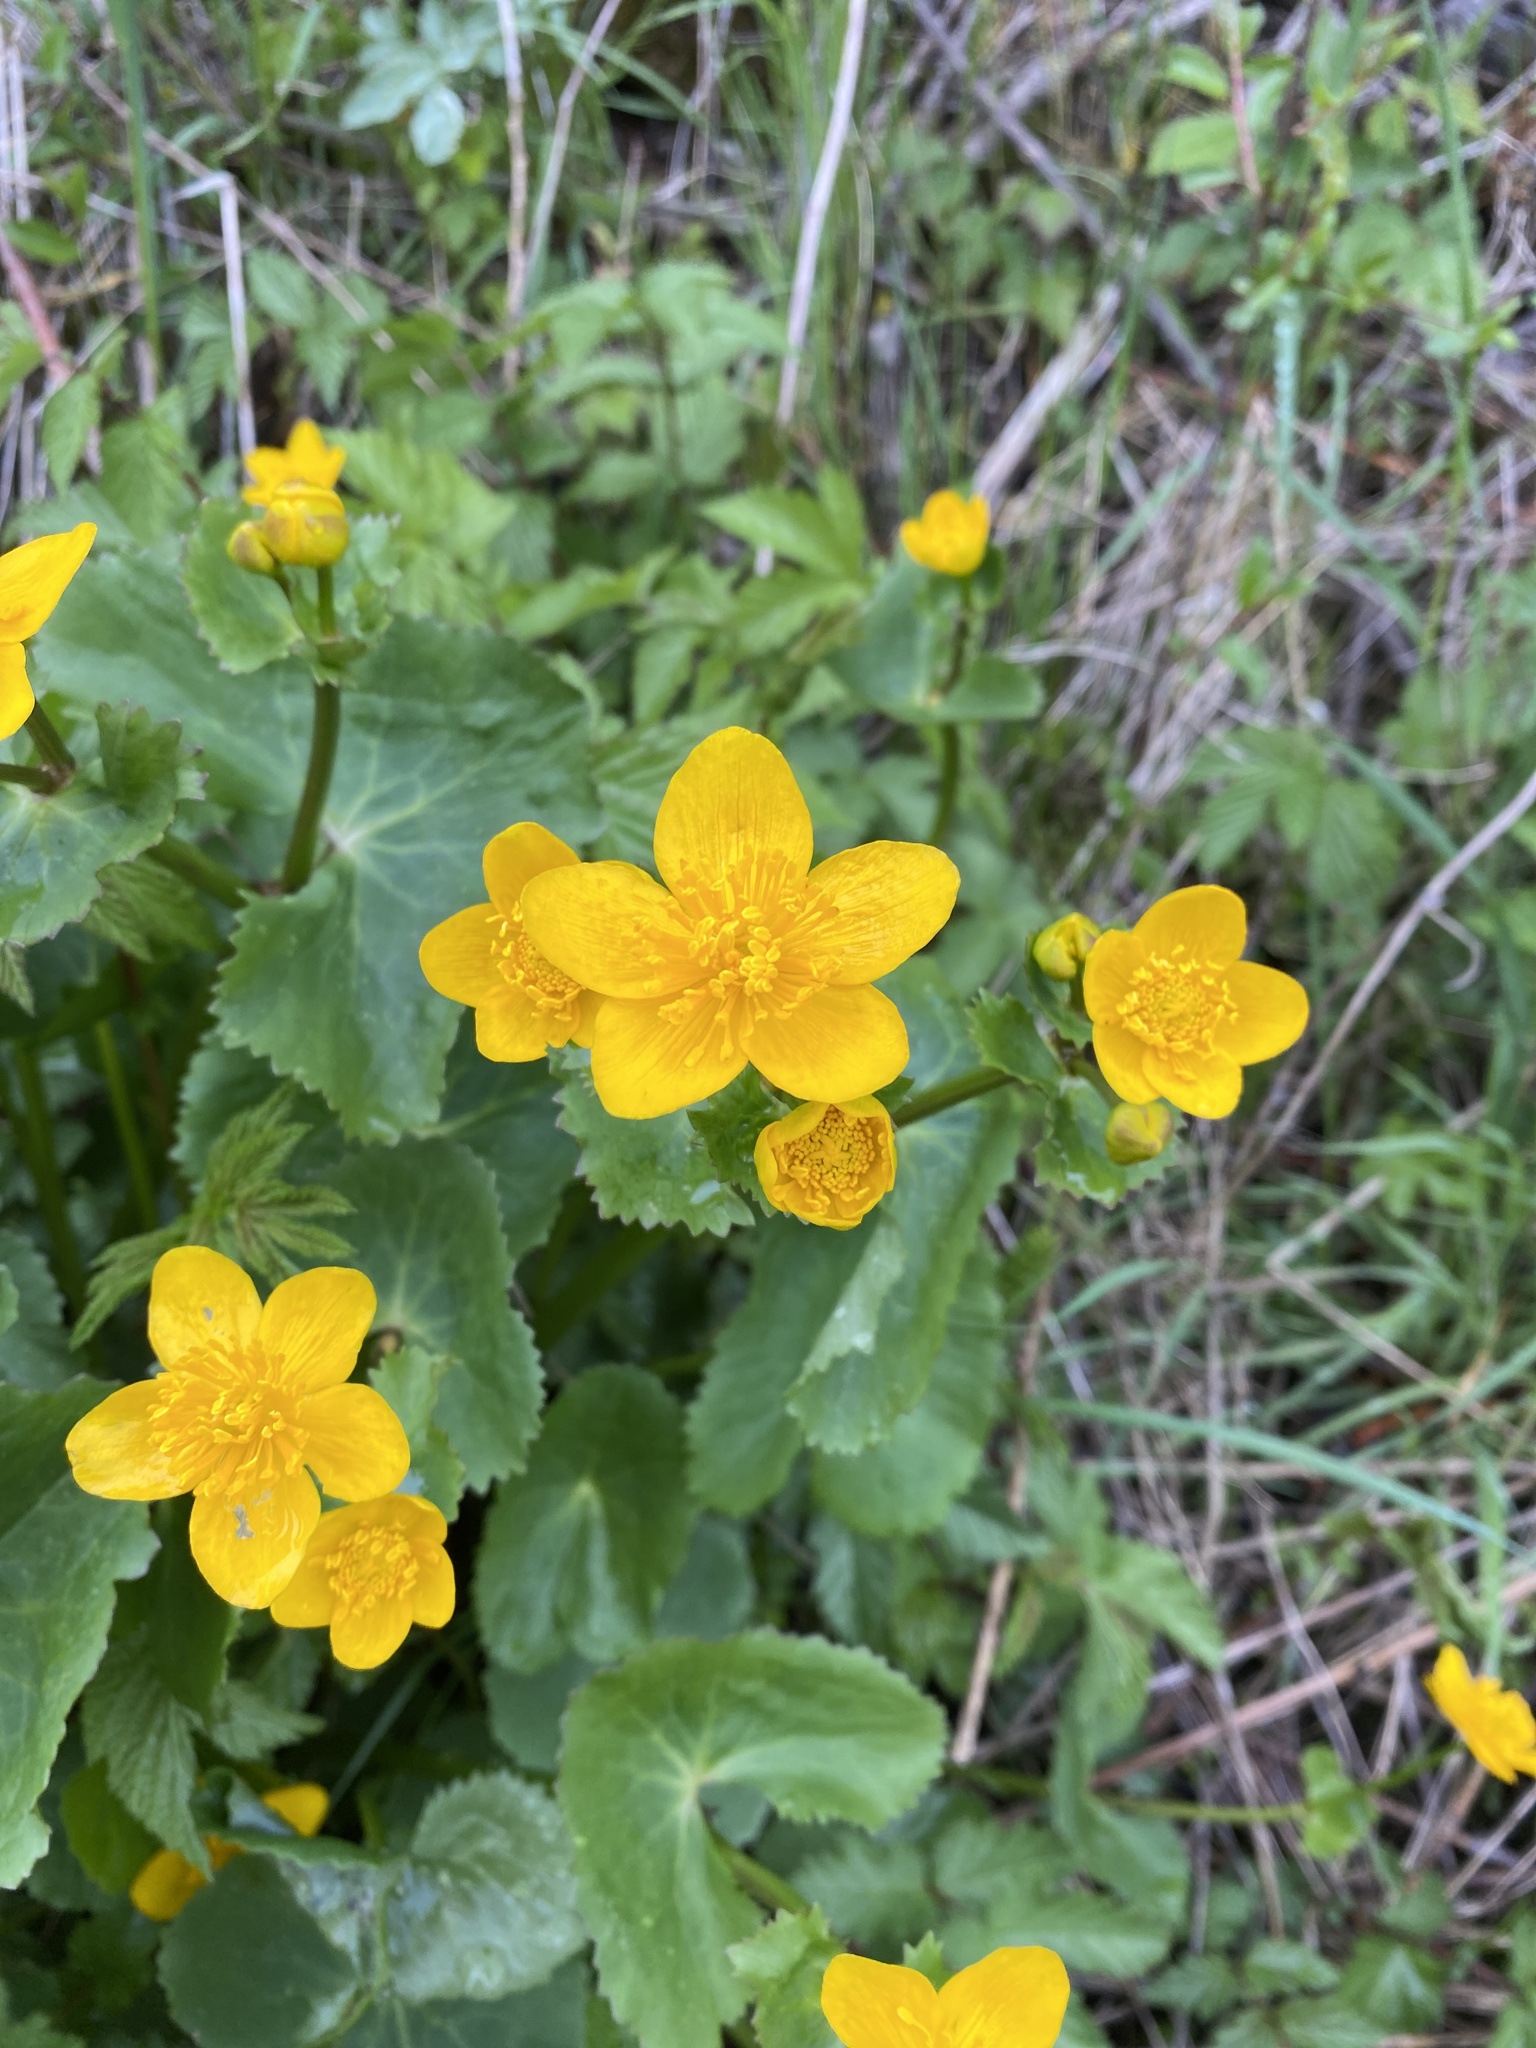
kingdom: Plantae
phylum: Tracheophyta
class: Magnoliopsida
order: Ranunculales
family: Ranunculaceae
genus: Caltha
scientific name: Caltha palustris
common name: Marsh marigold
